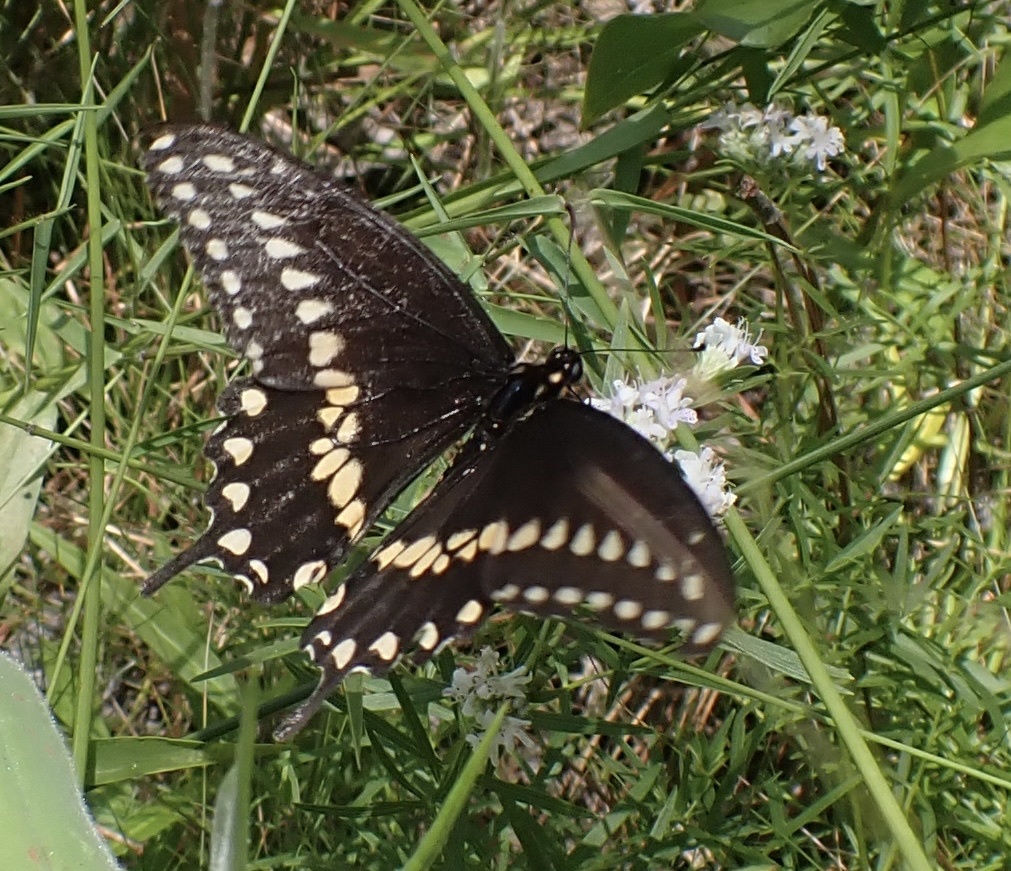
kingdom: Animalia
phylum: Arthropoda
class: Insecta
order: Lepidoptera
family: Papilionidae
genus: Papilio
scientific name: Papilio polyxenes
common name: Black swallowtail
